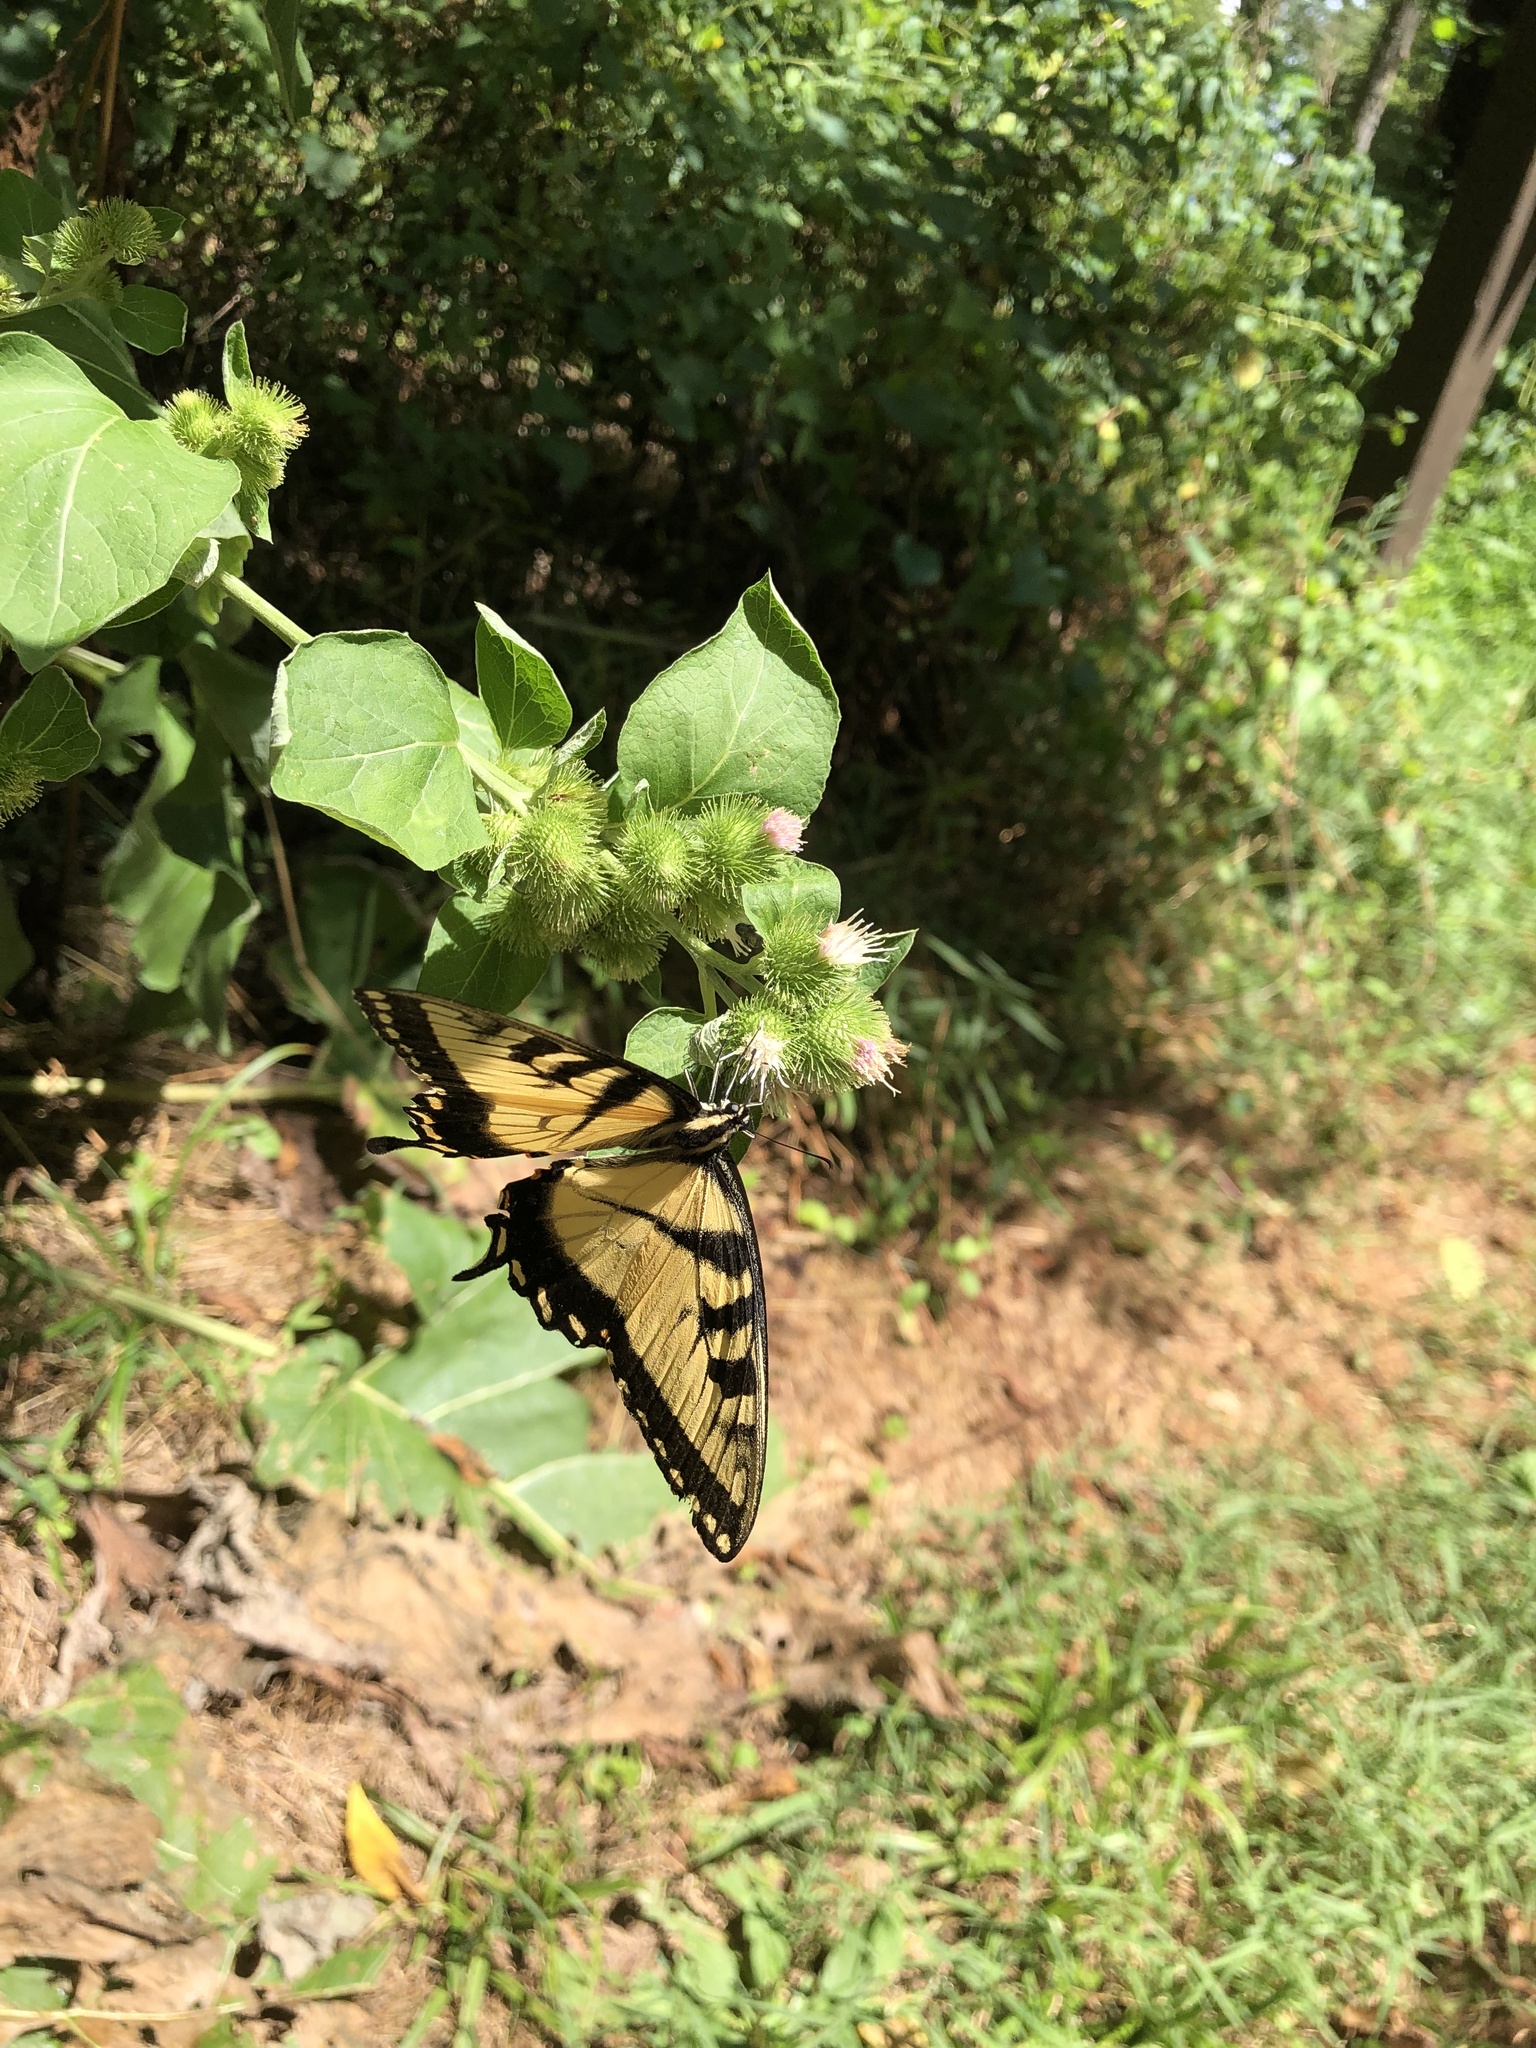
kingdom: Animalia
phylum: Arthropoda
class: Insecta
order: Lepidoptera
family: Papilionidae
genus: Papilio
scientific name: Papilio glaucus
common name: Tiger swallowtail
